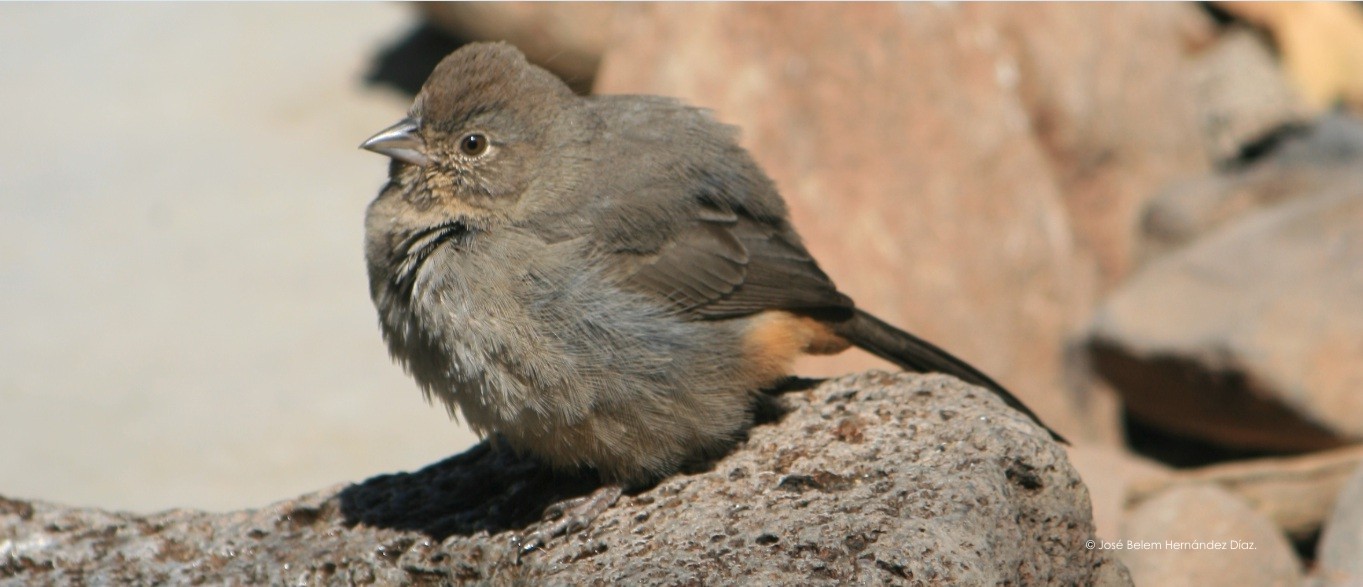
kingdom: Animalia
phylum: Chordata
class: Aves
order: Passeriformes
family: Passerellidae
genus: Melozone
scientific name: Melozone fusca
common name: Canyon towhee
